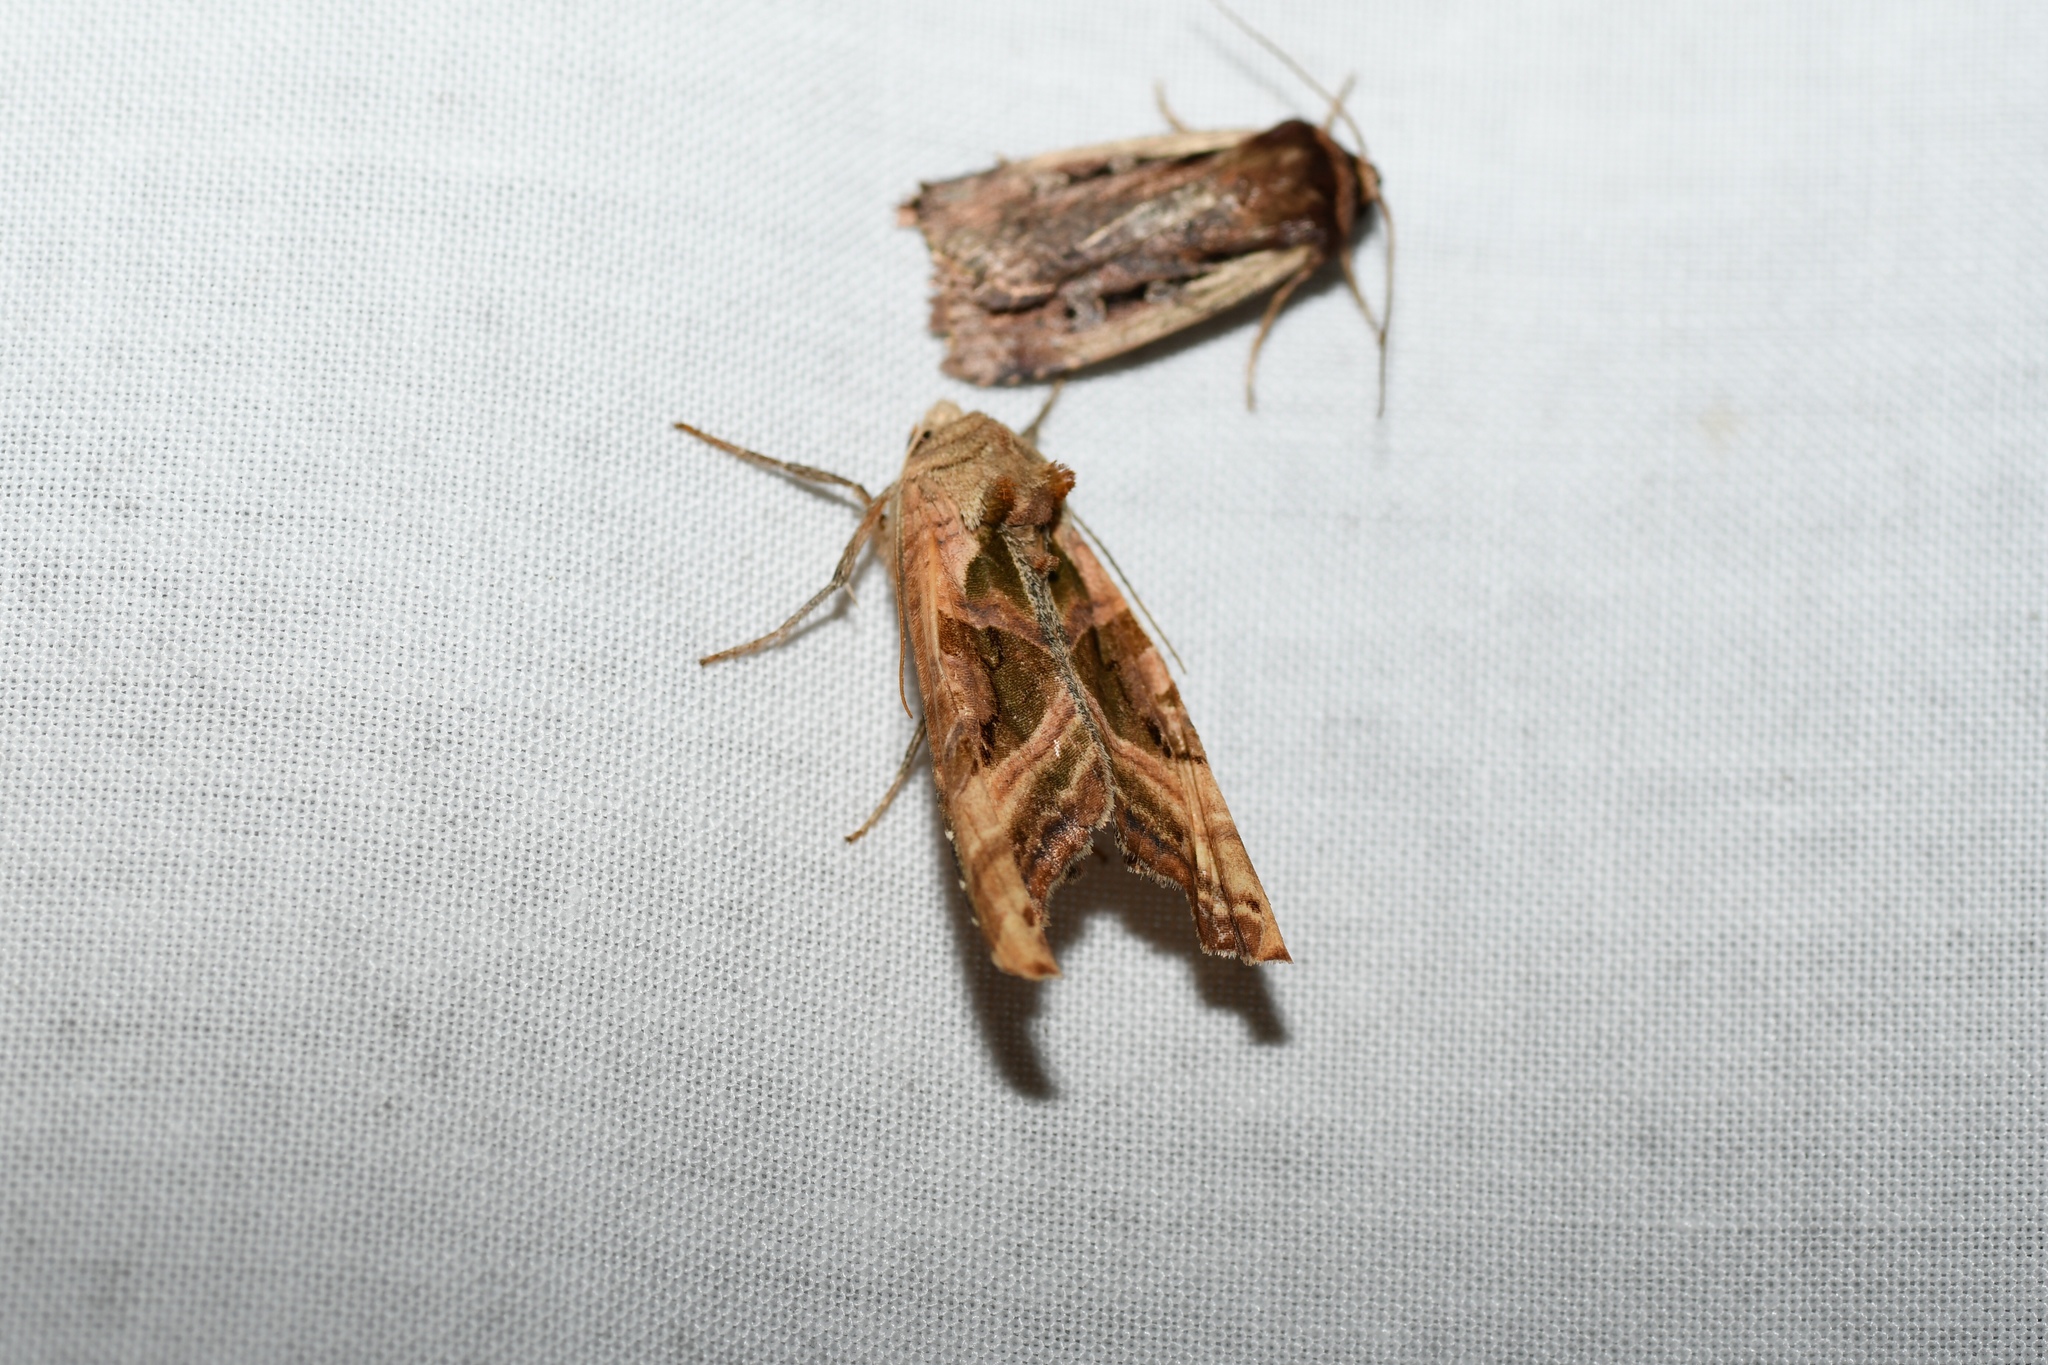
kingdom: Animalia
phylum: Arthropoda
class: Insecta
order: Lepidoptera
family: Noctuidae
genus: Phlogophora
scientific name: Phlogophora iris
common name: Olive angle shades
